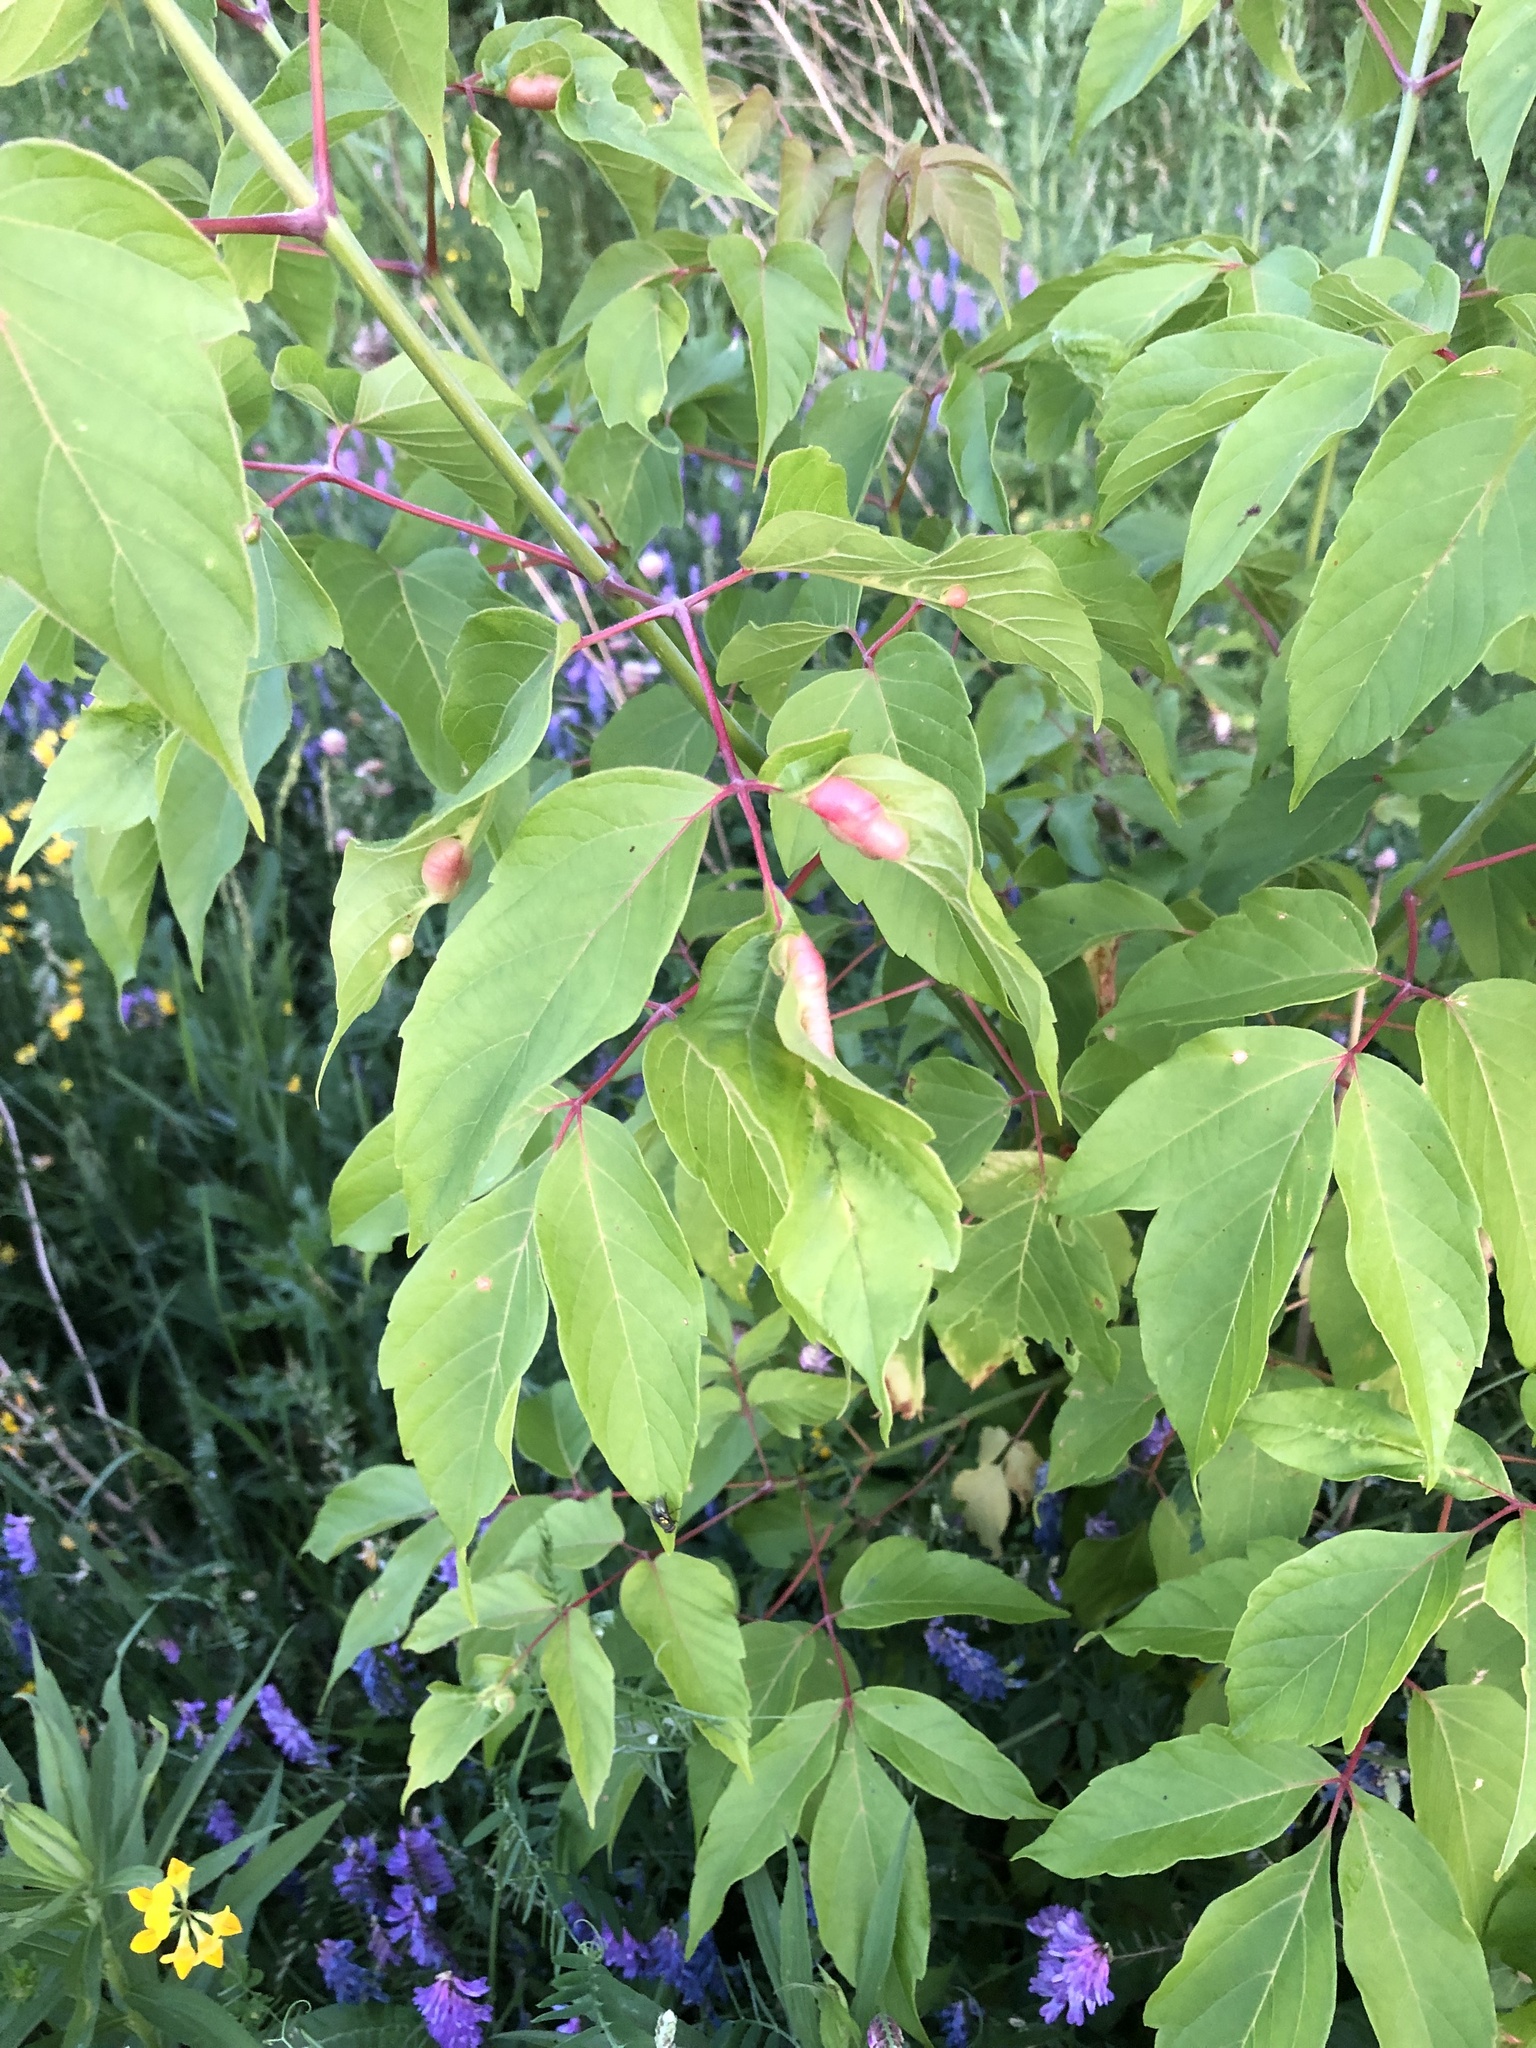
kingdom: Plantae
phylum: Tracheophyta
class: Magnoliopsida
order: Sapindales
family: Sapindaceae
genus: Acer
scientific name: Acer negundo
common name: Ashleaf maple
